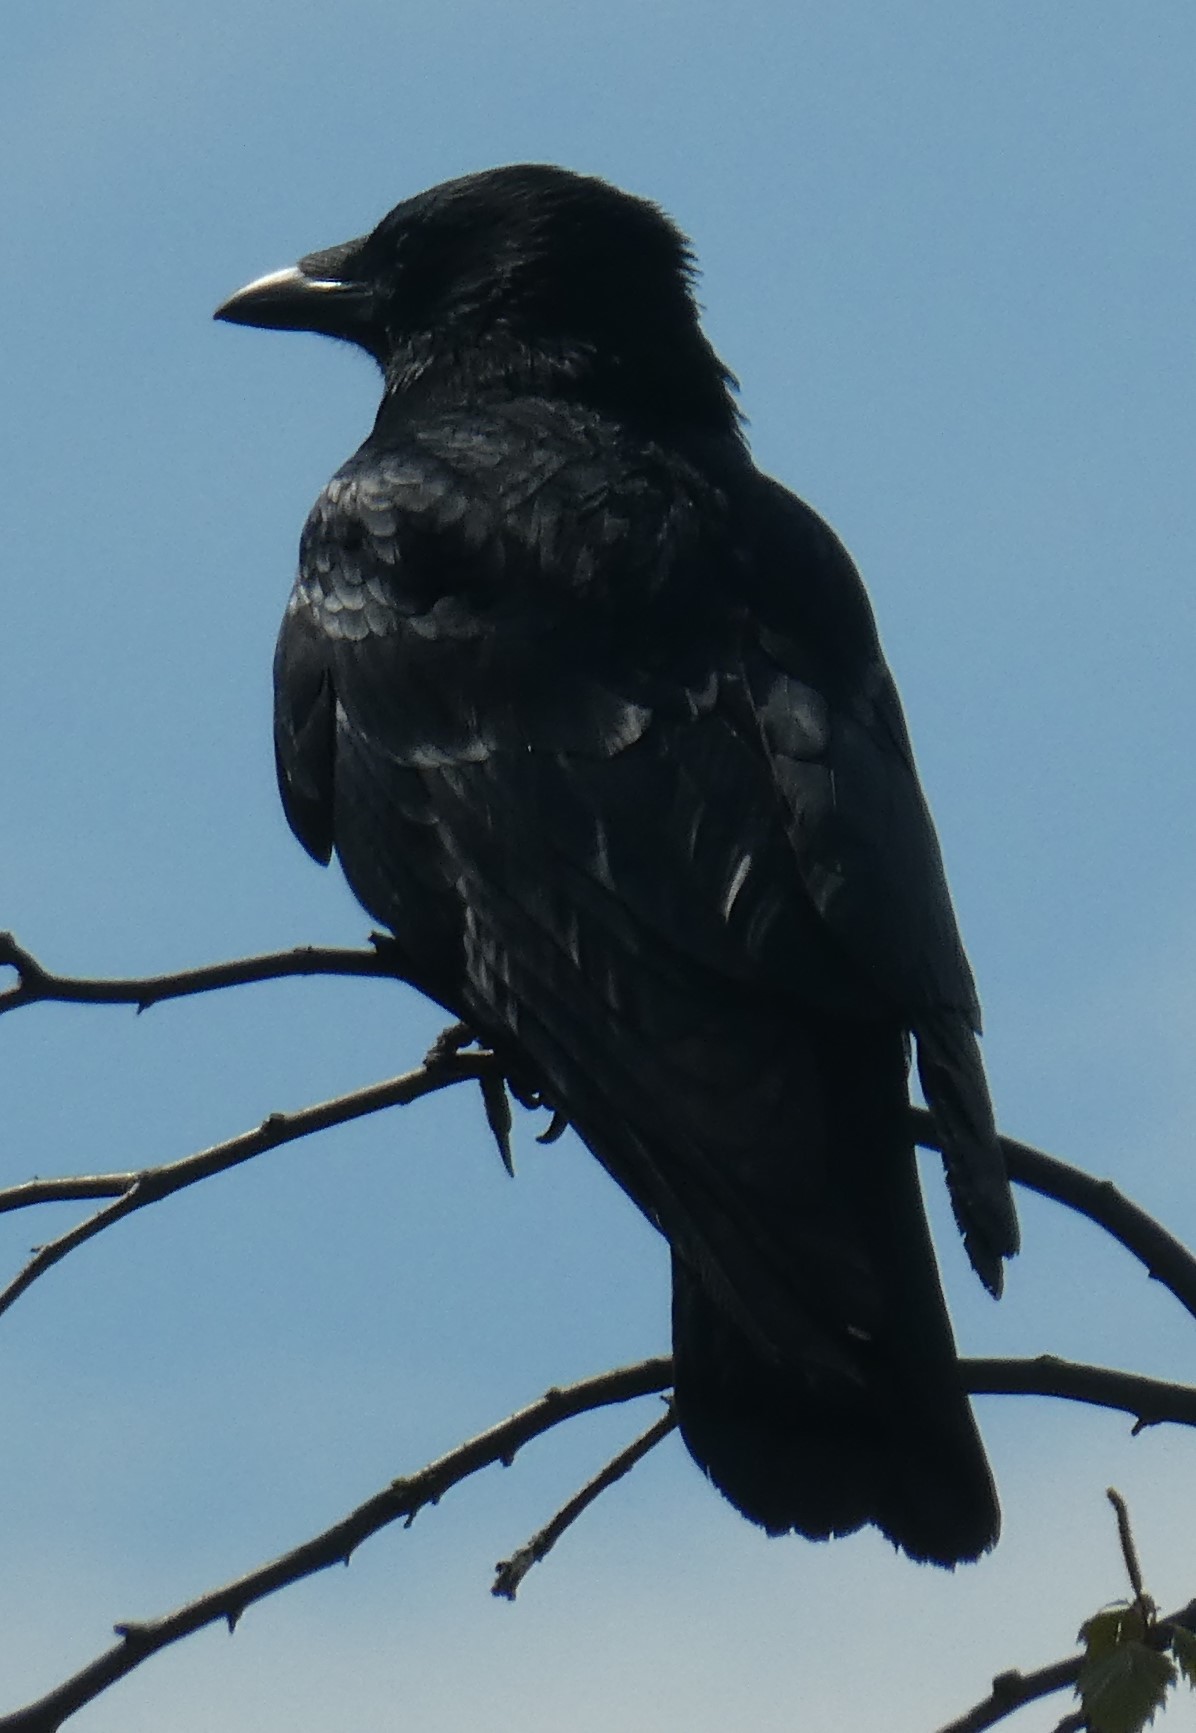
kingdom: Animalia
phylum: Chordata
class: Aves
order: Passeriformes
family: Corvidae
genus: Corvus
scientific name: Corvus corone
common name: Carrion crow
